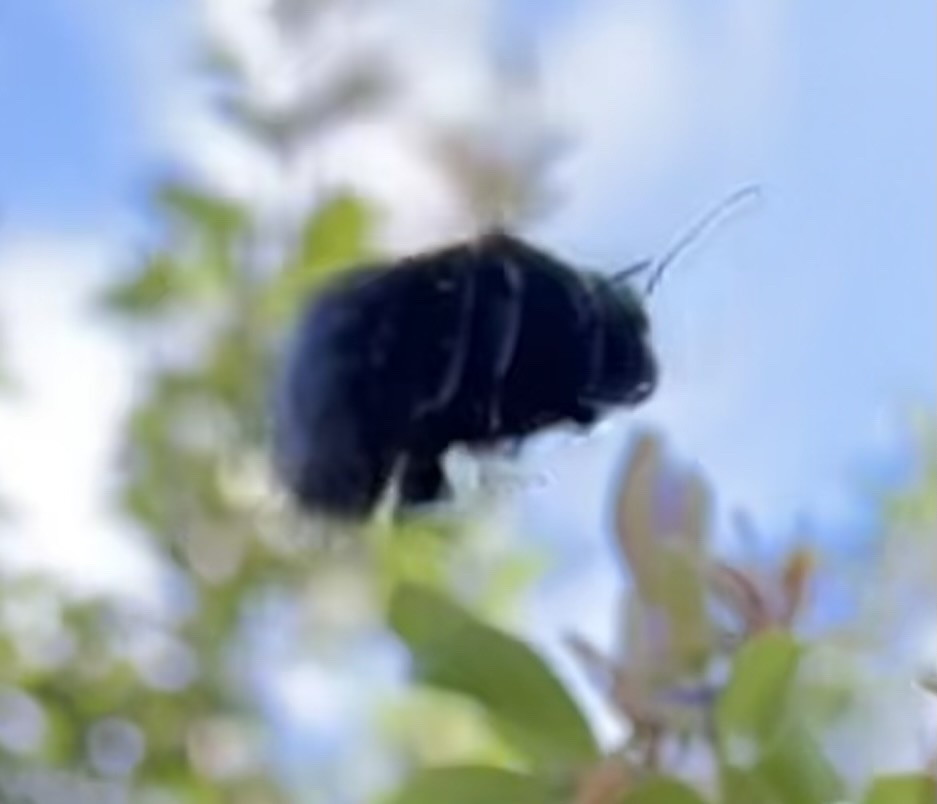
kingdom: Animalia
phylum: Arthropoda
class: Insecta
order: Hymenoptera
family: Apidae
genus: Xylocopa
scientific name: Xylocopa sonorina
